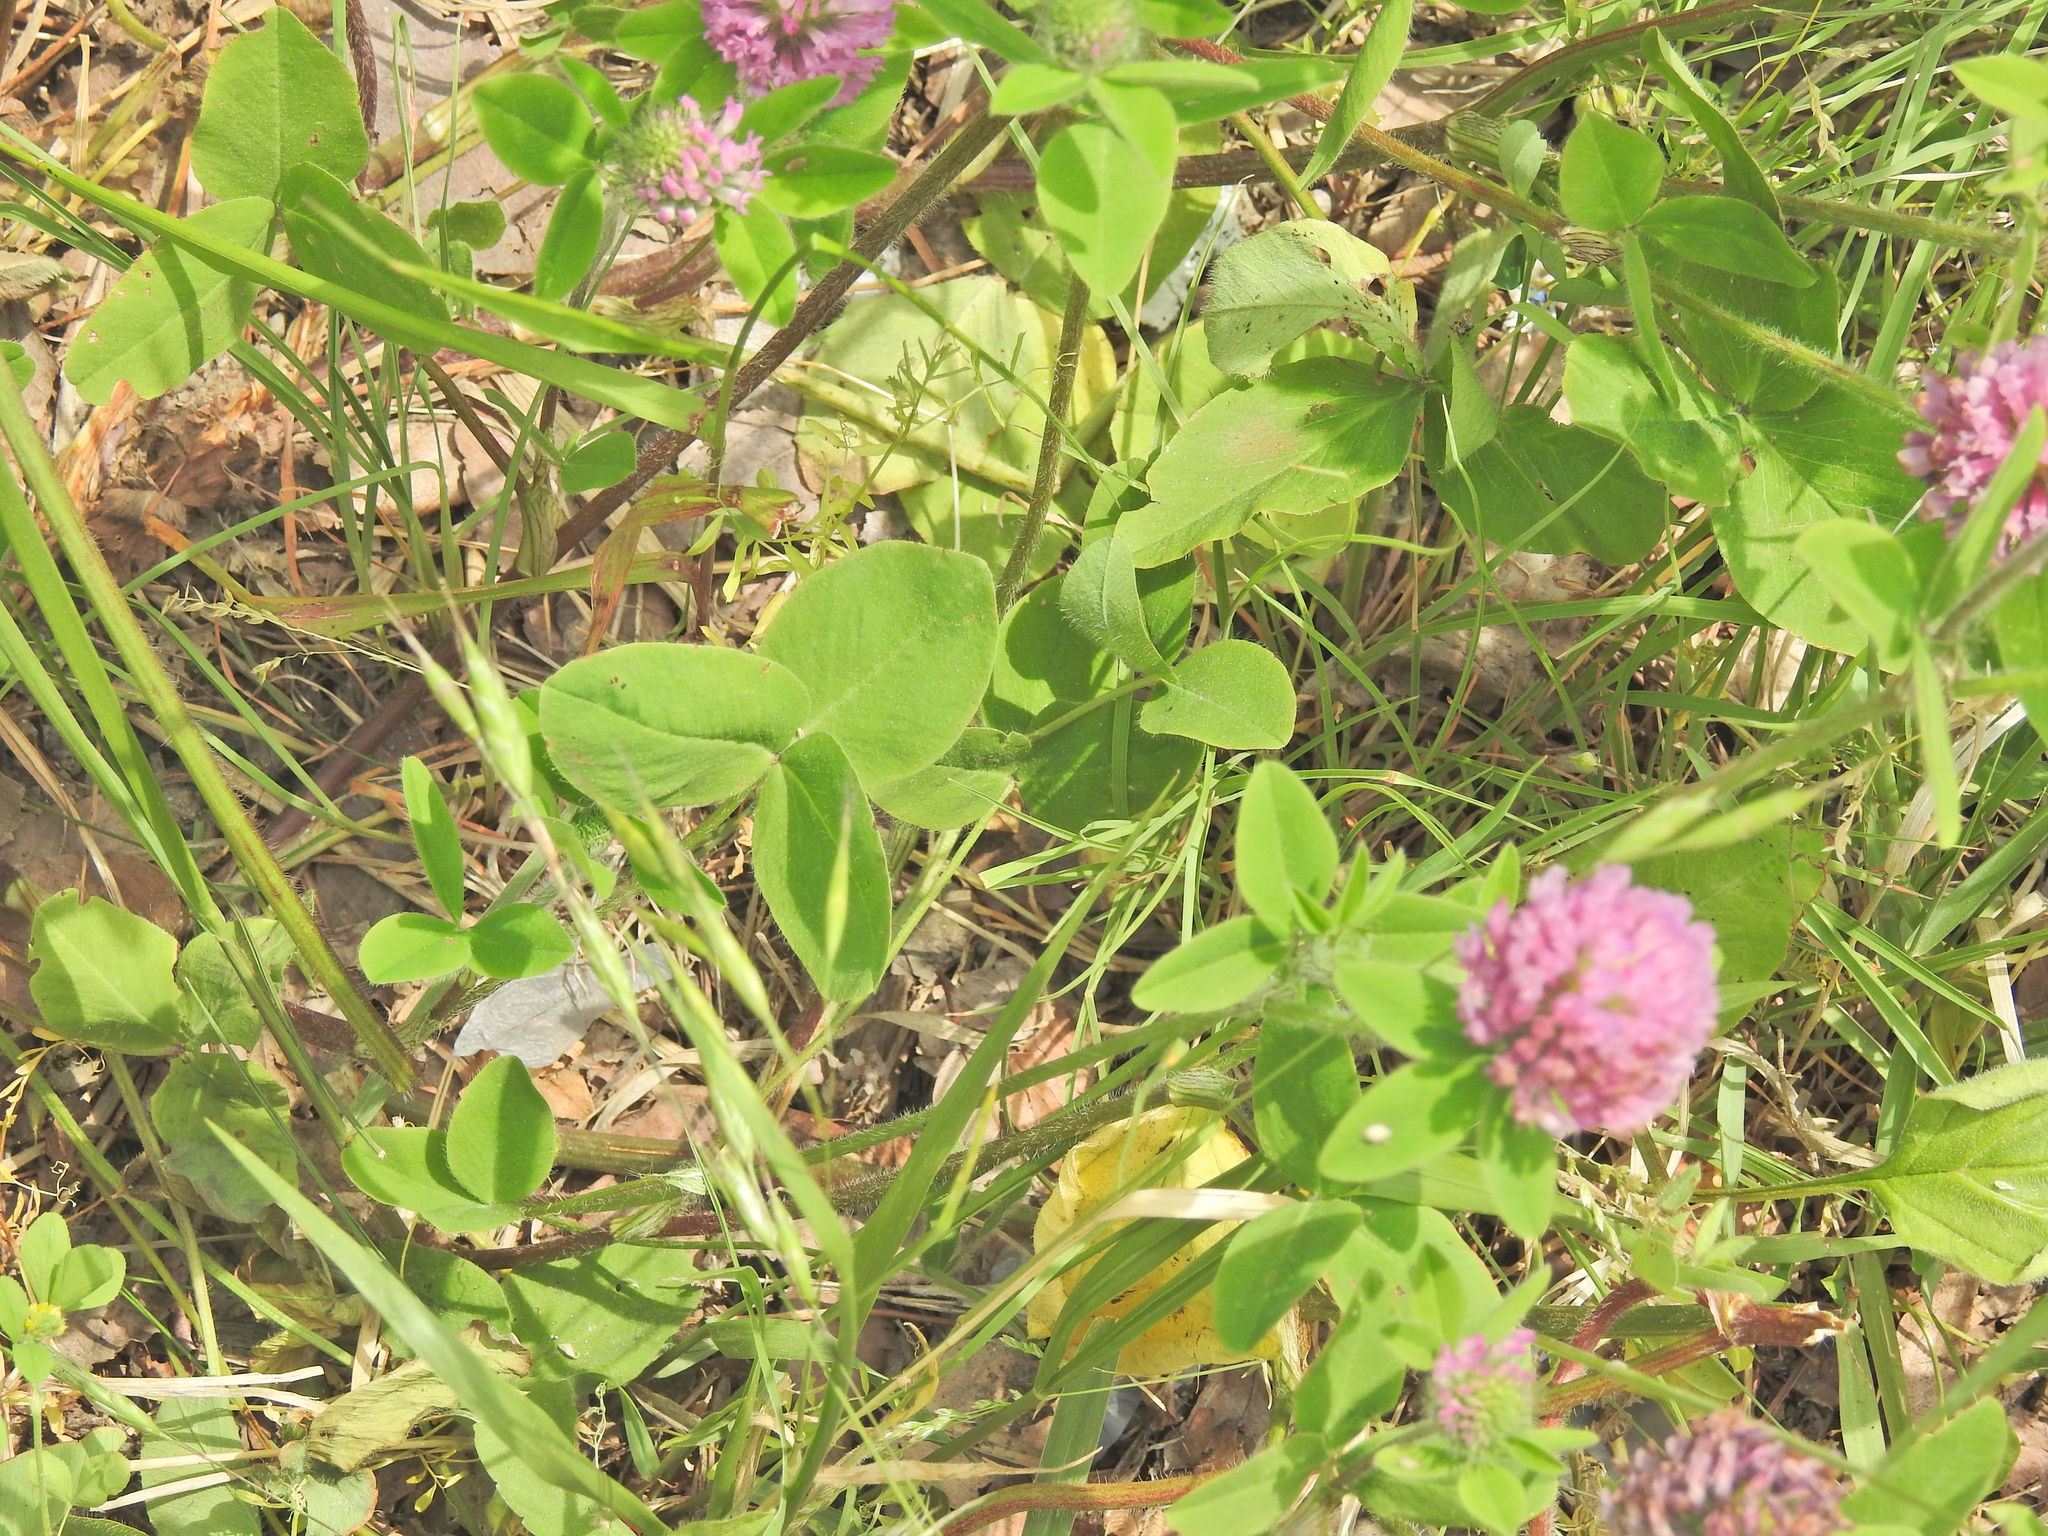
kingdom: Plantae
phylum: Tracheophyta
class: Magnoliopsida
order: Fabales
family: Fabaceae
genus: Trifolium
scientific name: Trifolium pratense
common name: Red clover
